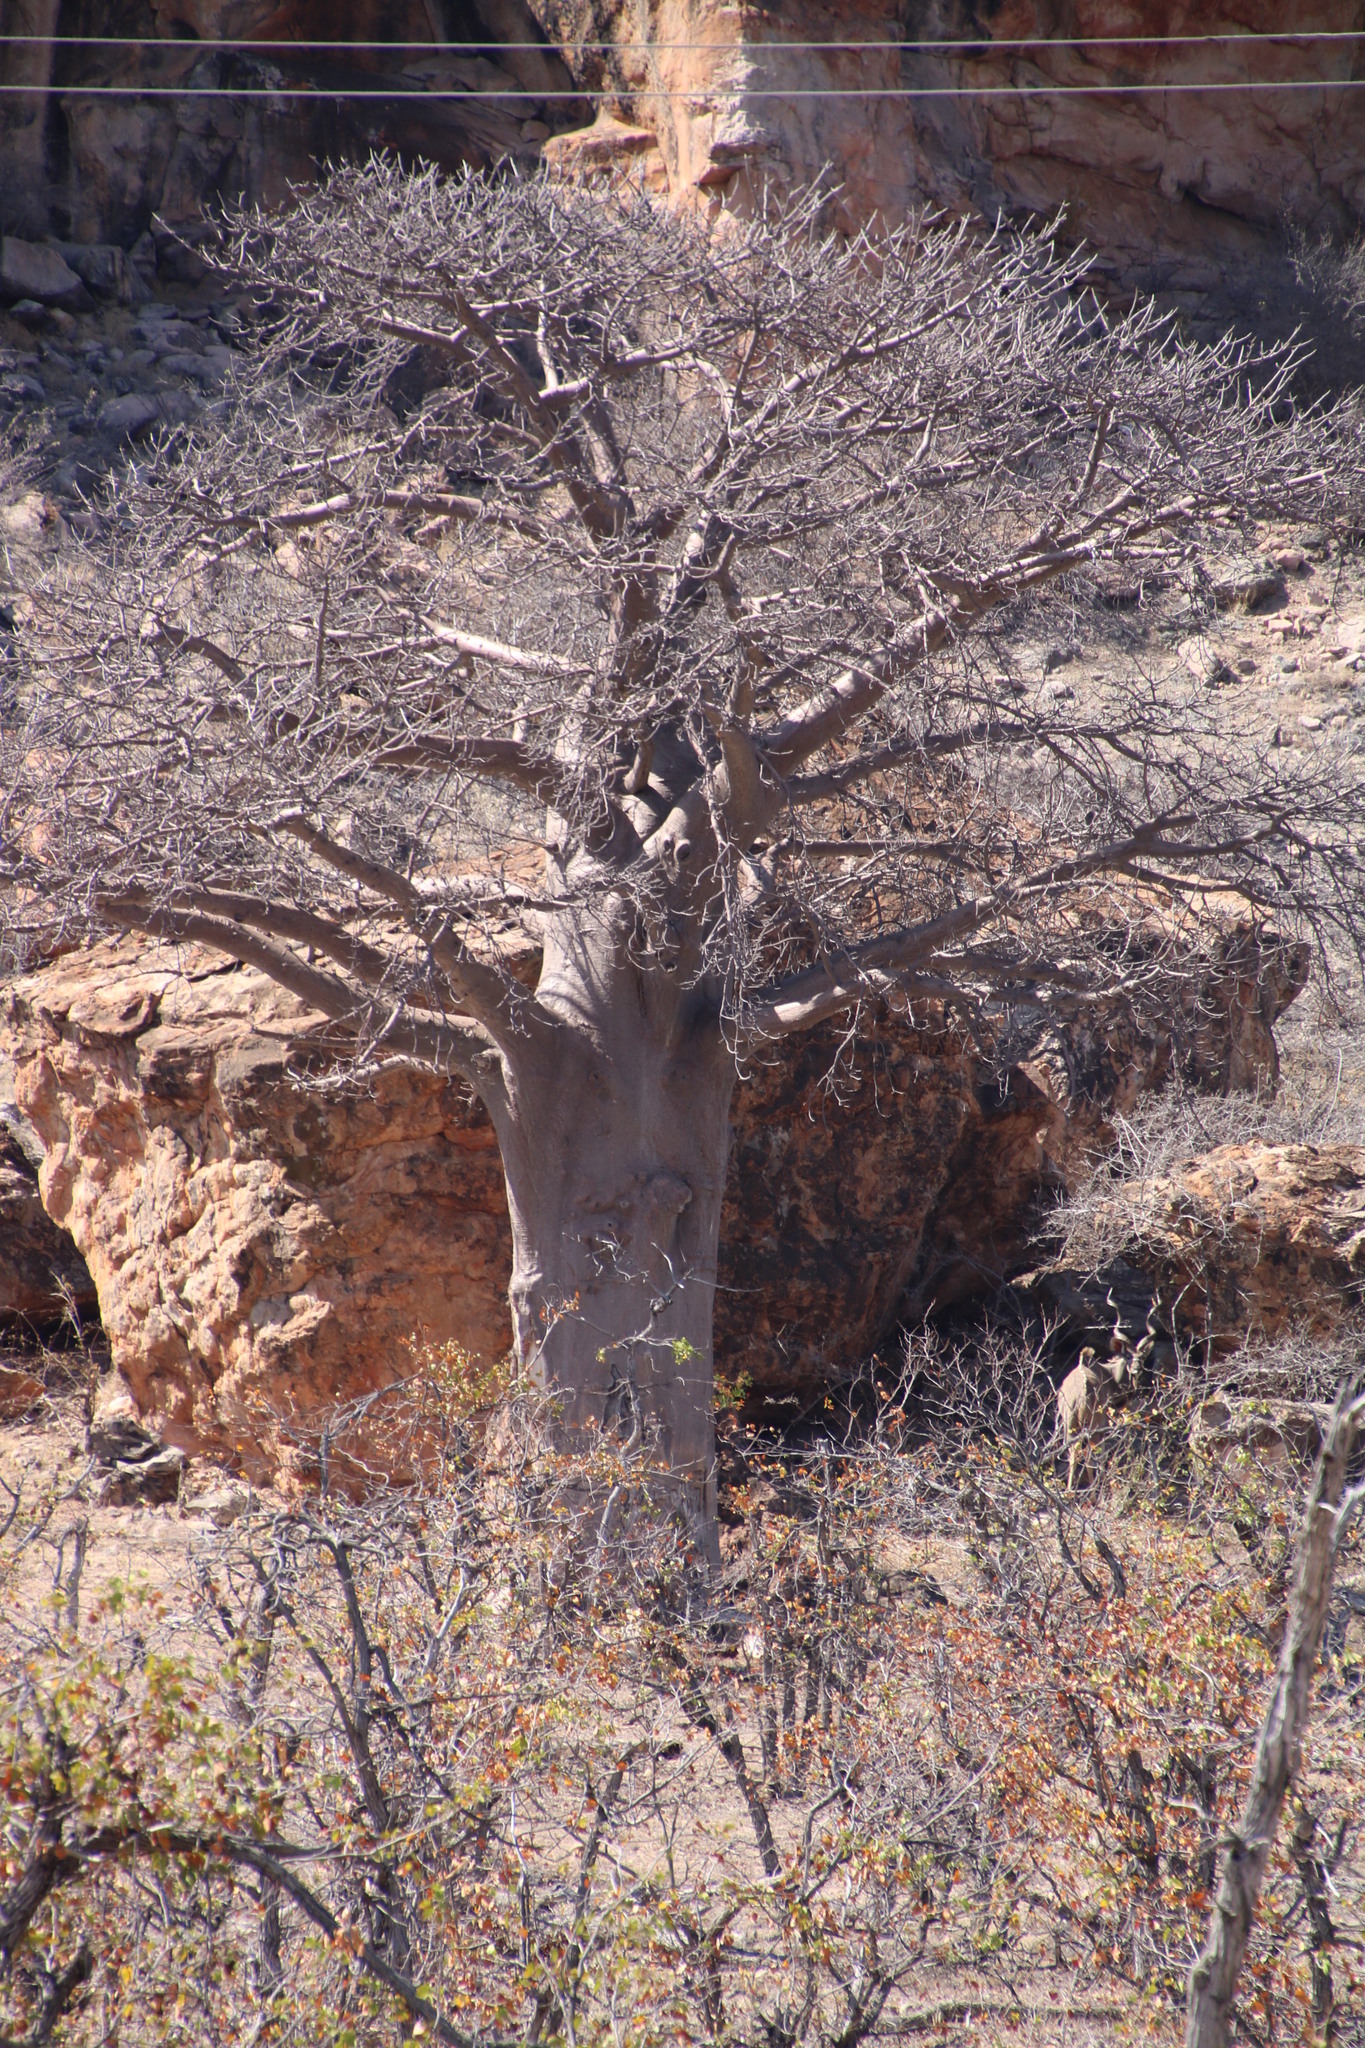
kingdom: Plantae
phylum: Tracheophyta
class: Magnoliopsida
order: Malvales
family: Malvaceae
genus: Adansonia
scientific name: Adansonia digitata
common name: Dead-rat-tree
